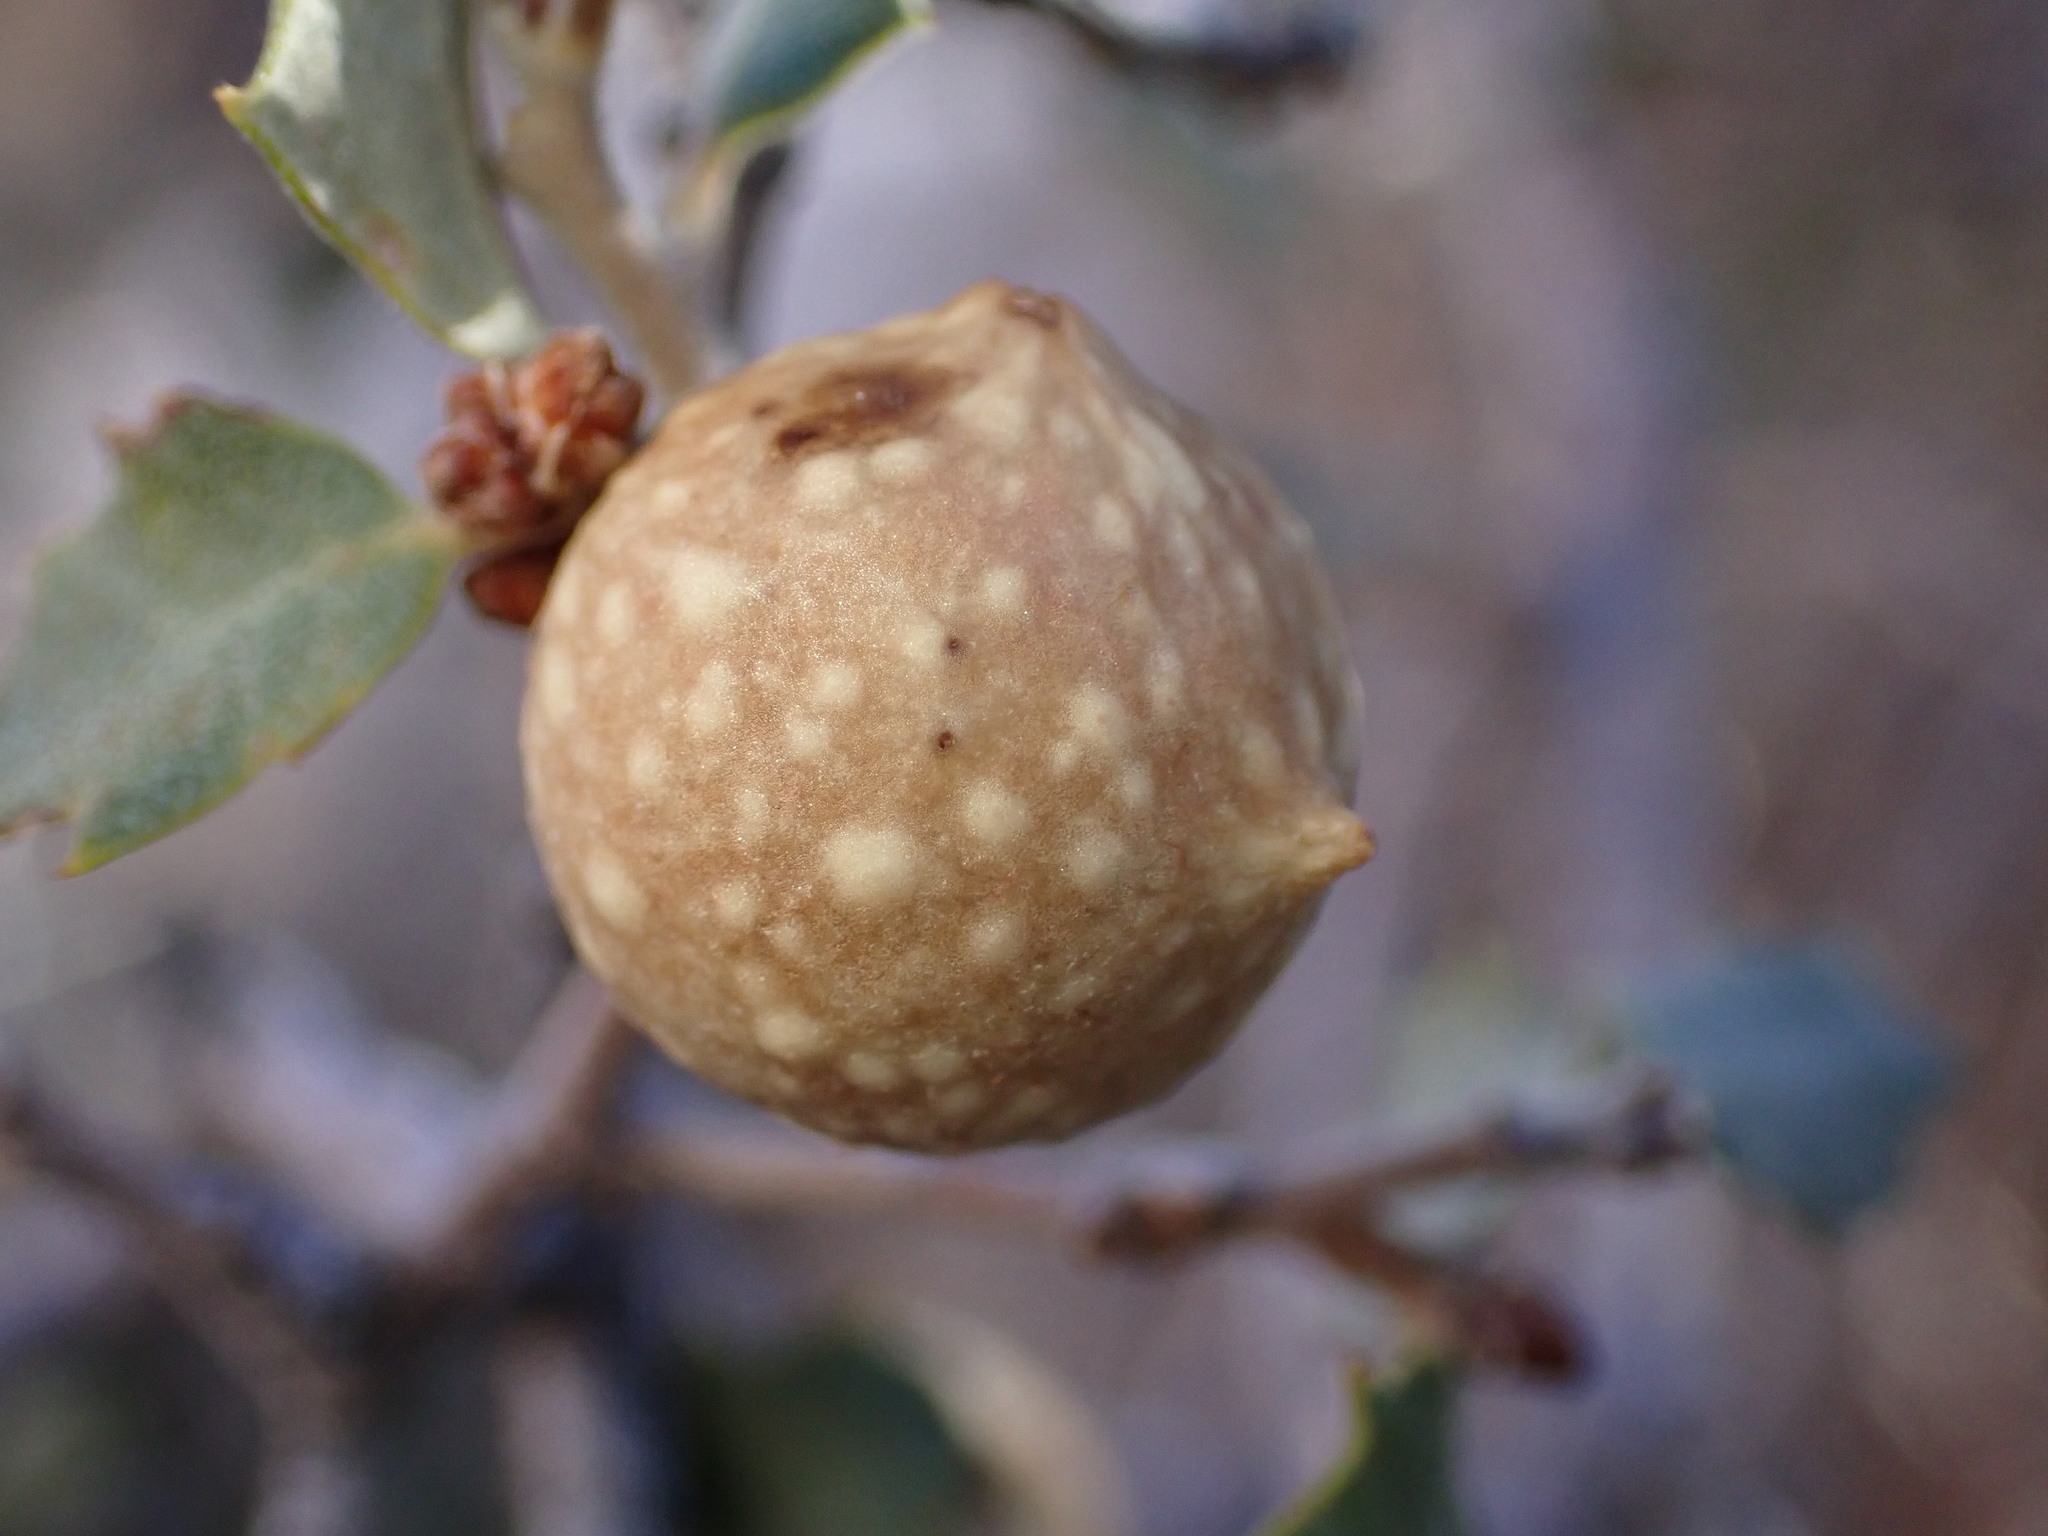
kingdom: Animalia
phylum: Arthropoda
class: Insecta
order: Hymenoptera
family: Cynipidae
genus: Burnettweldia
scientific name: Burnettweldia
